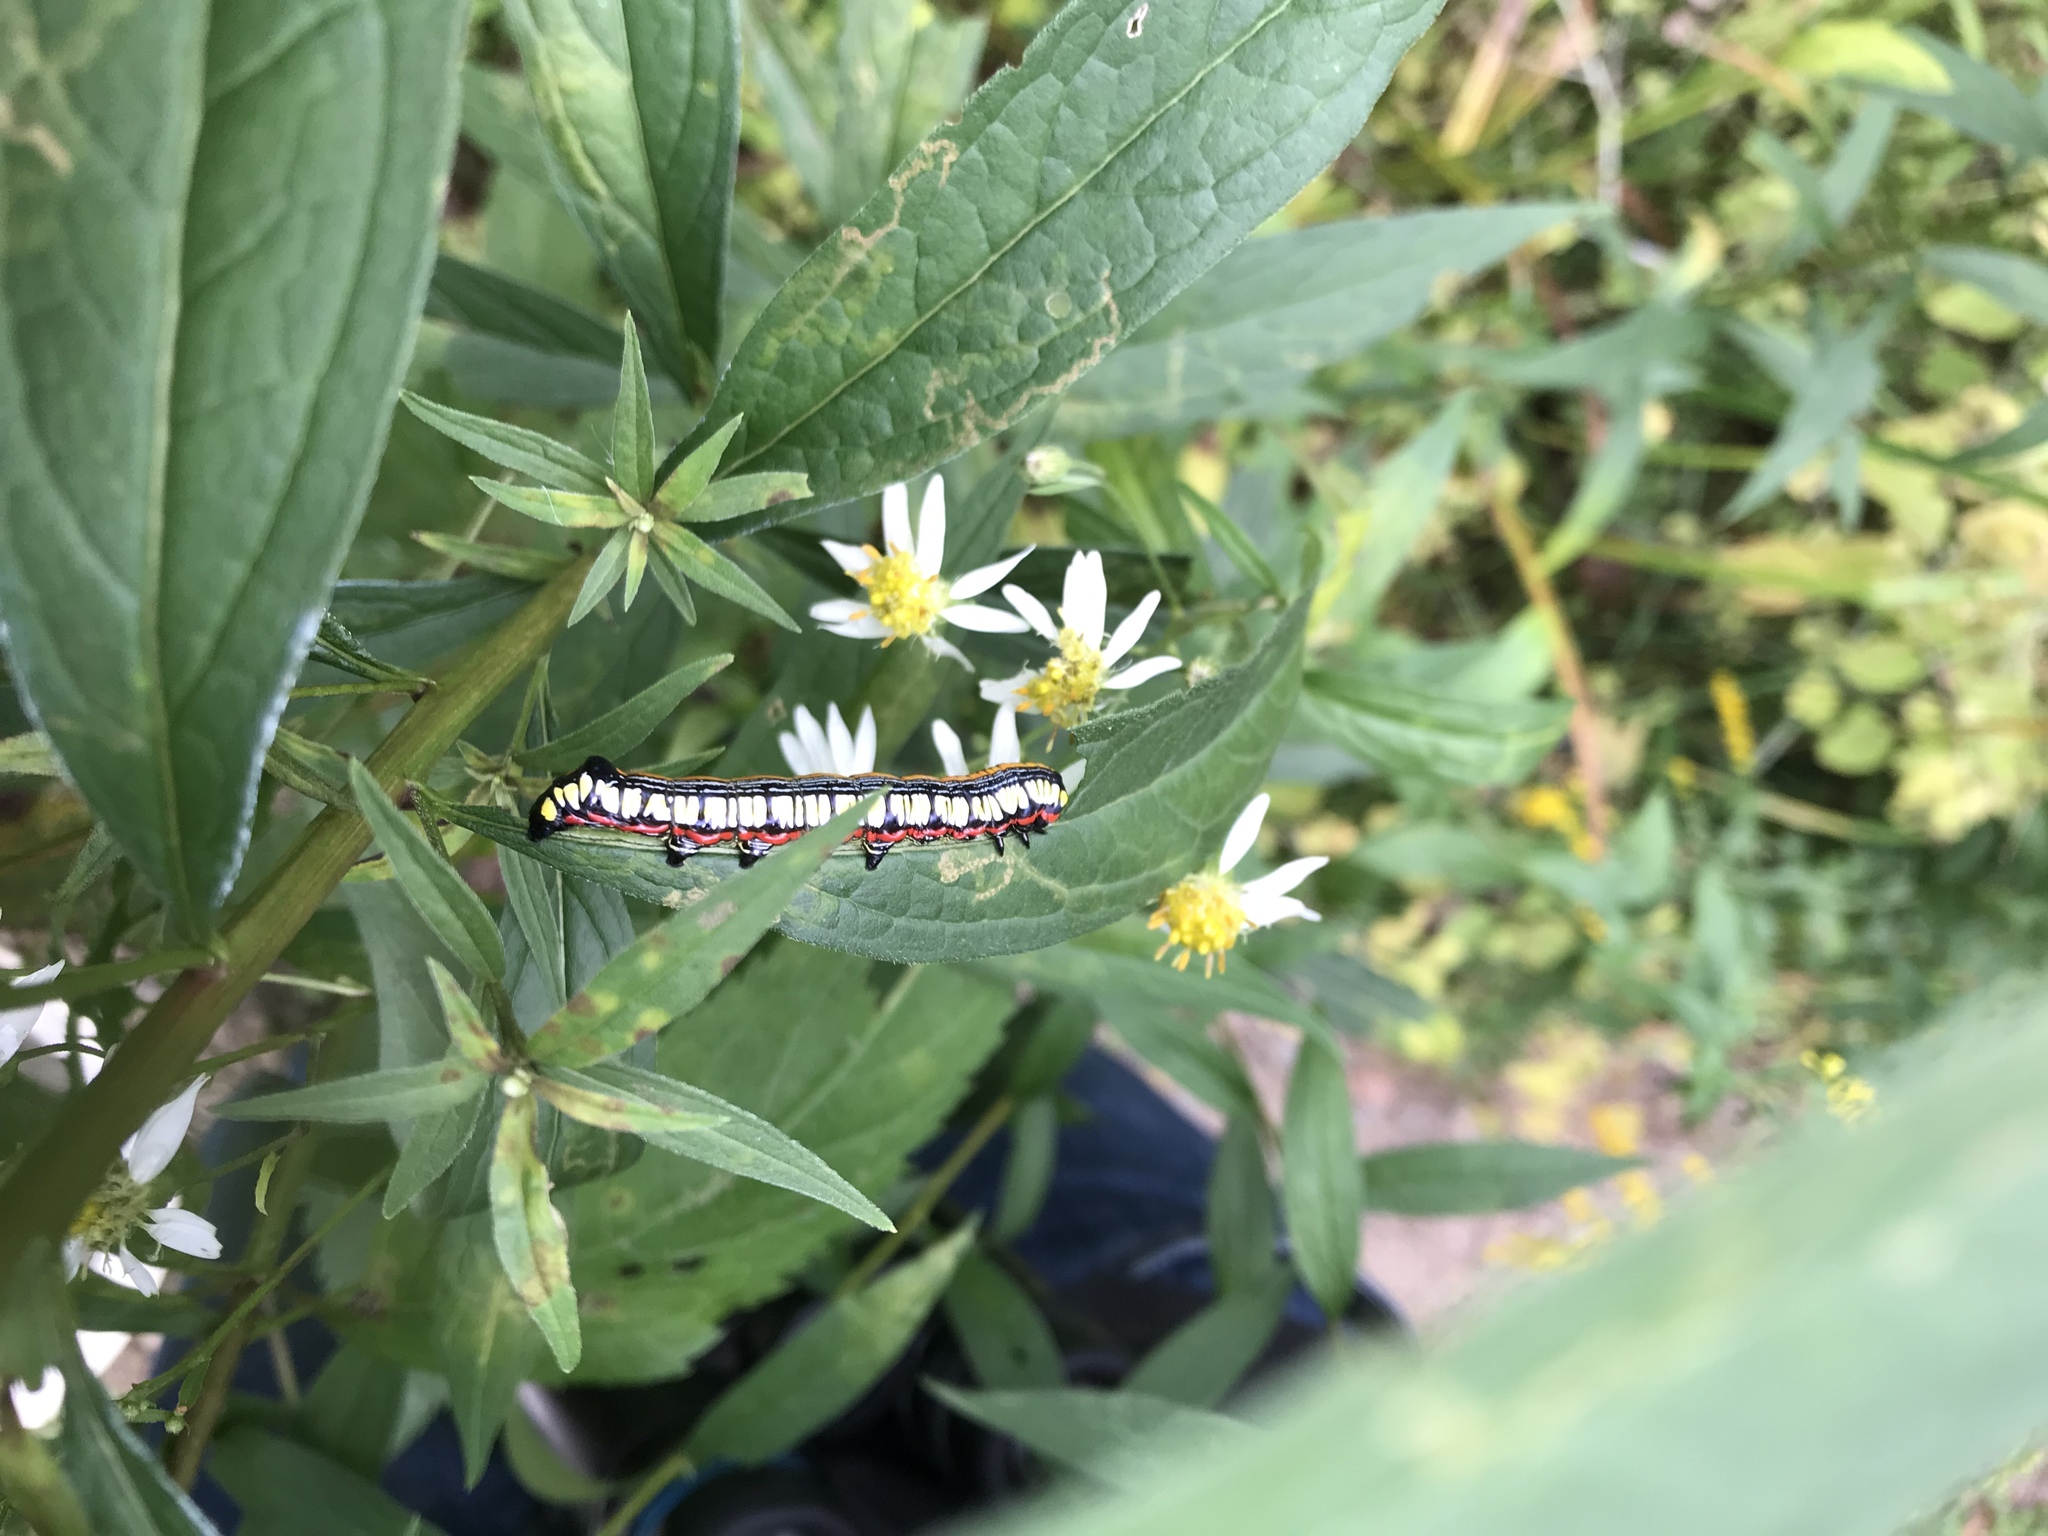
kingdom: Animalia
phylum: Arthropoda
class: Insecta
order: Lepidoptera
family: Noctuidae
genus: Cucullia
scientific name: Cucullia convexipennis
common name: Brown-hooded owlet
